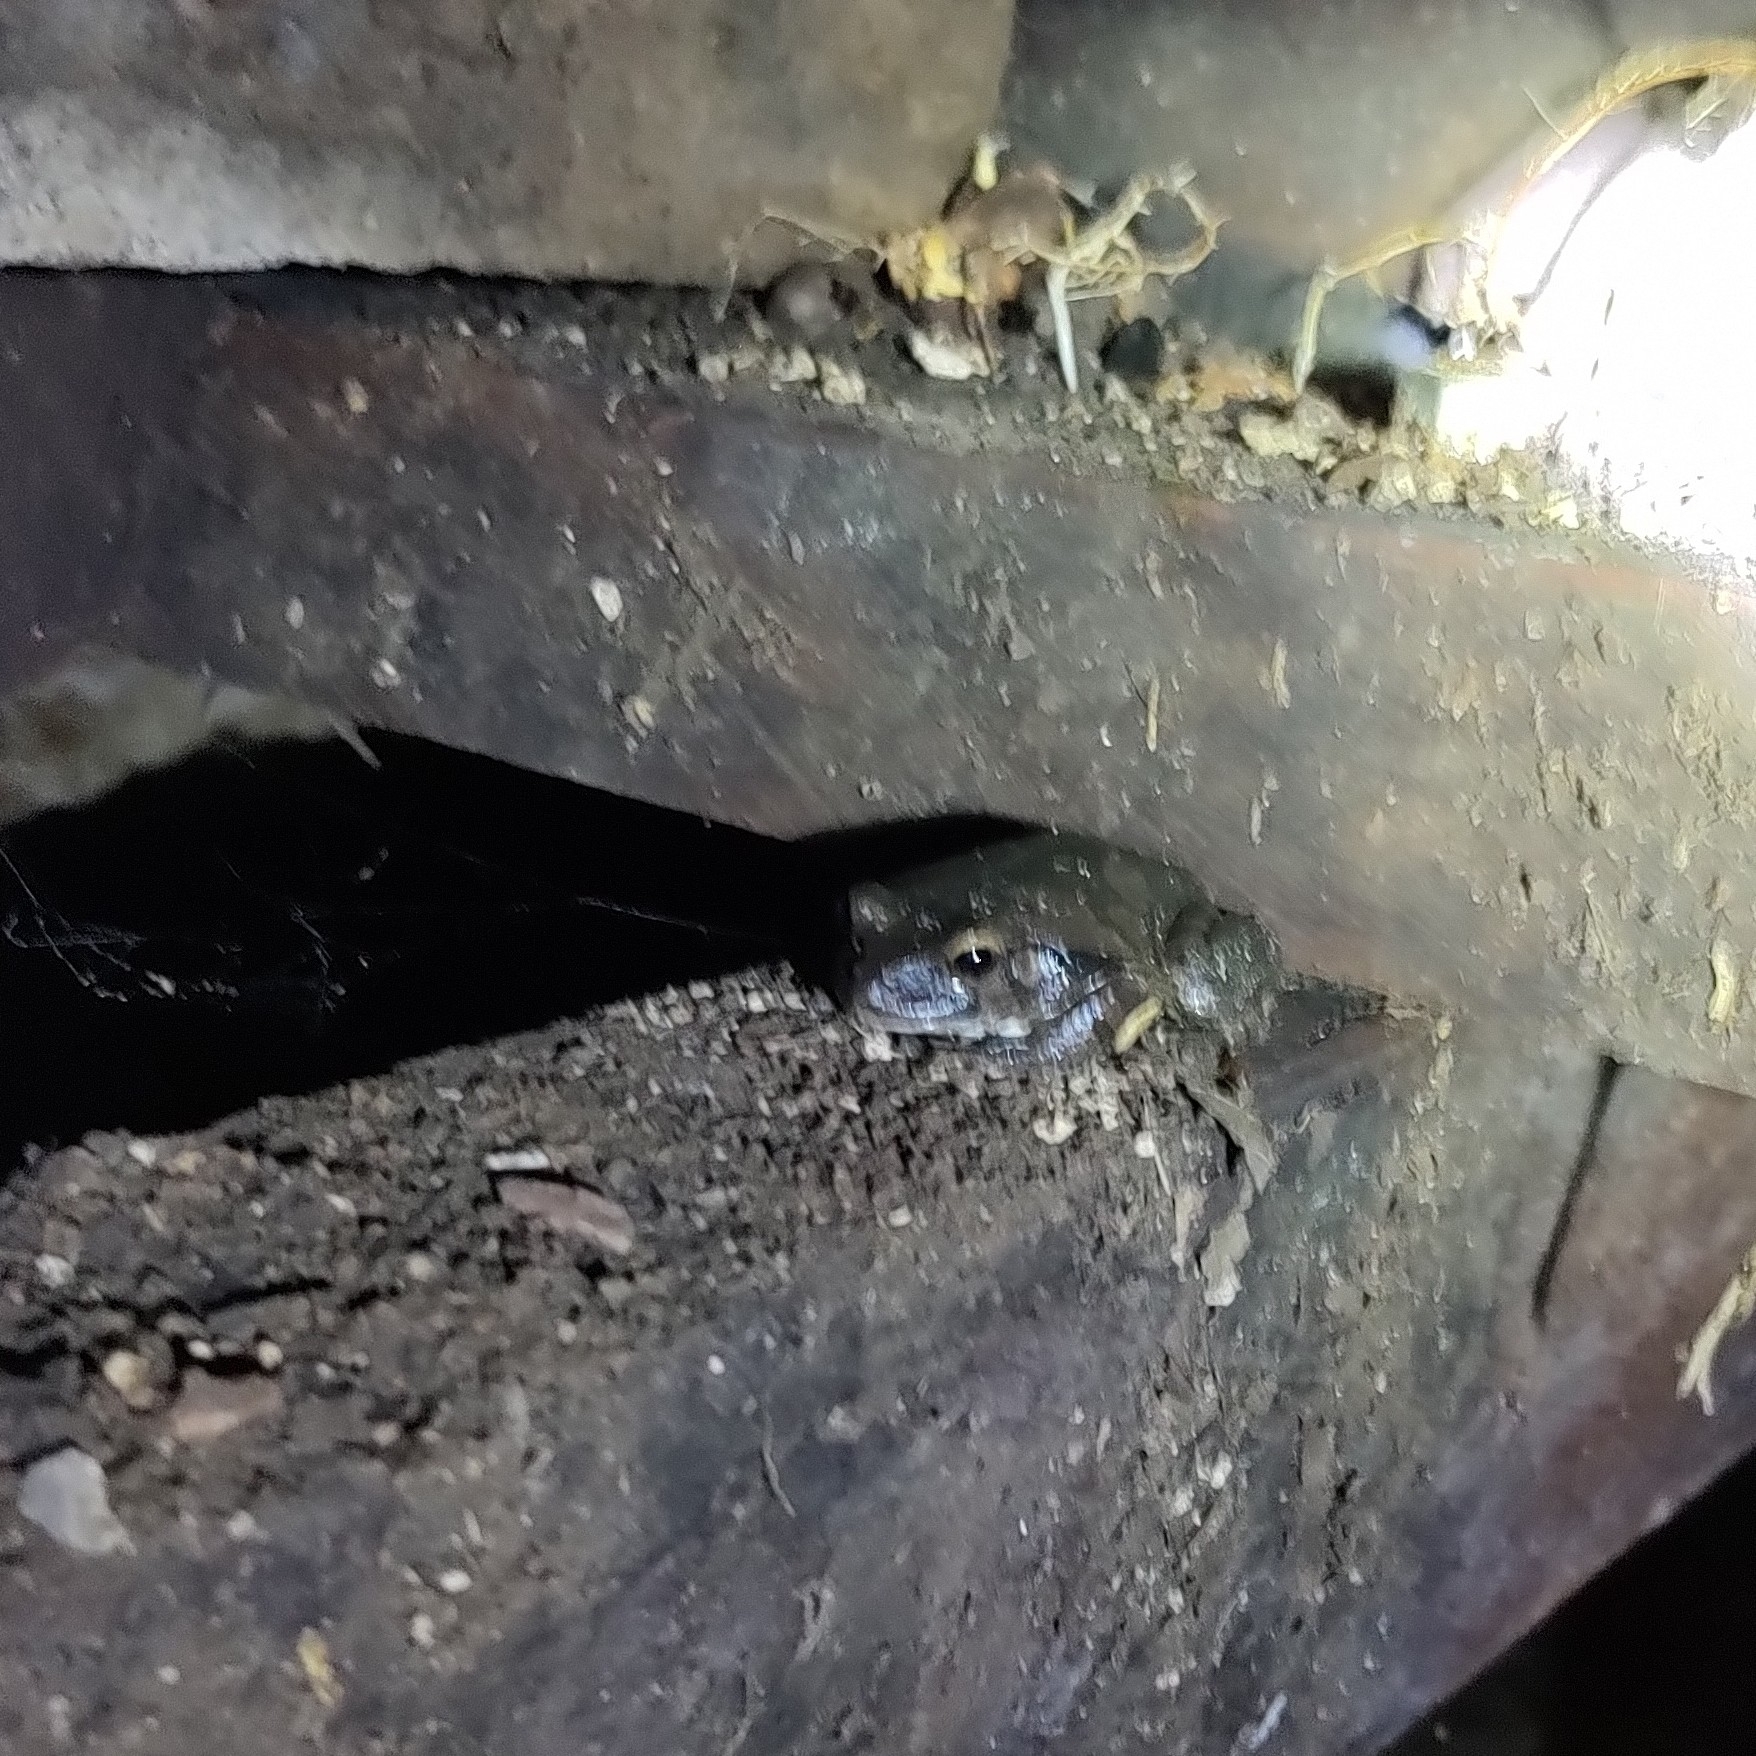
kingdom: Animalia
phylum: Chordata
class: Amphibia
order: Anura
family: Hylidae
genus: Smilisca
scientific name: Smilisca baudinii
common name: Mexican smilisca
